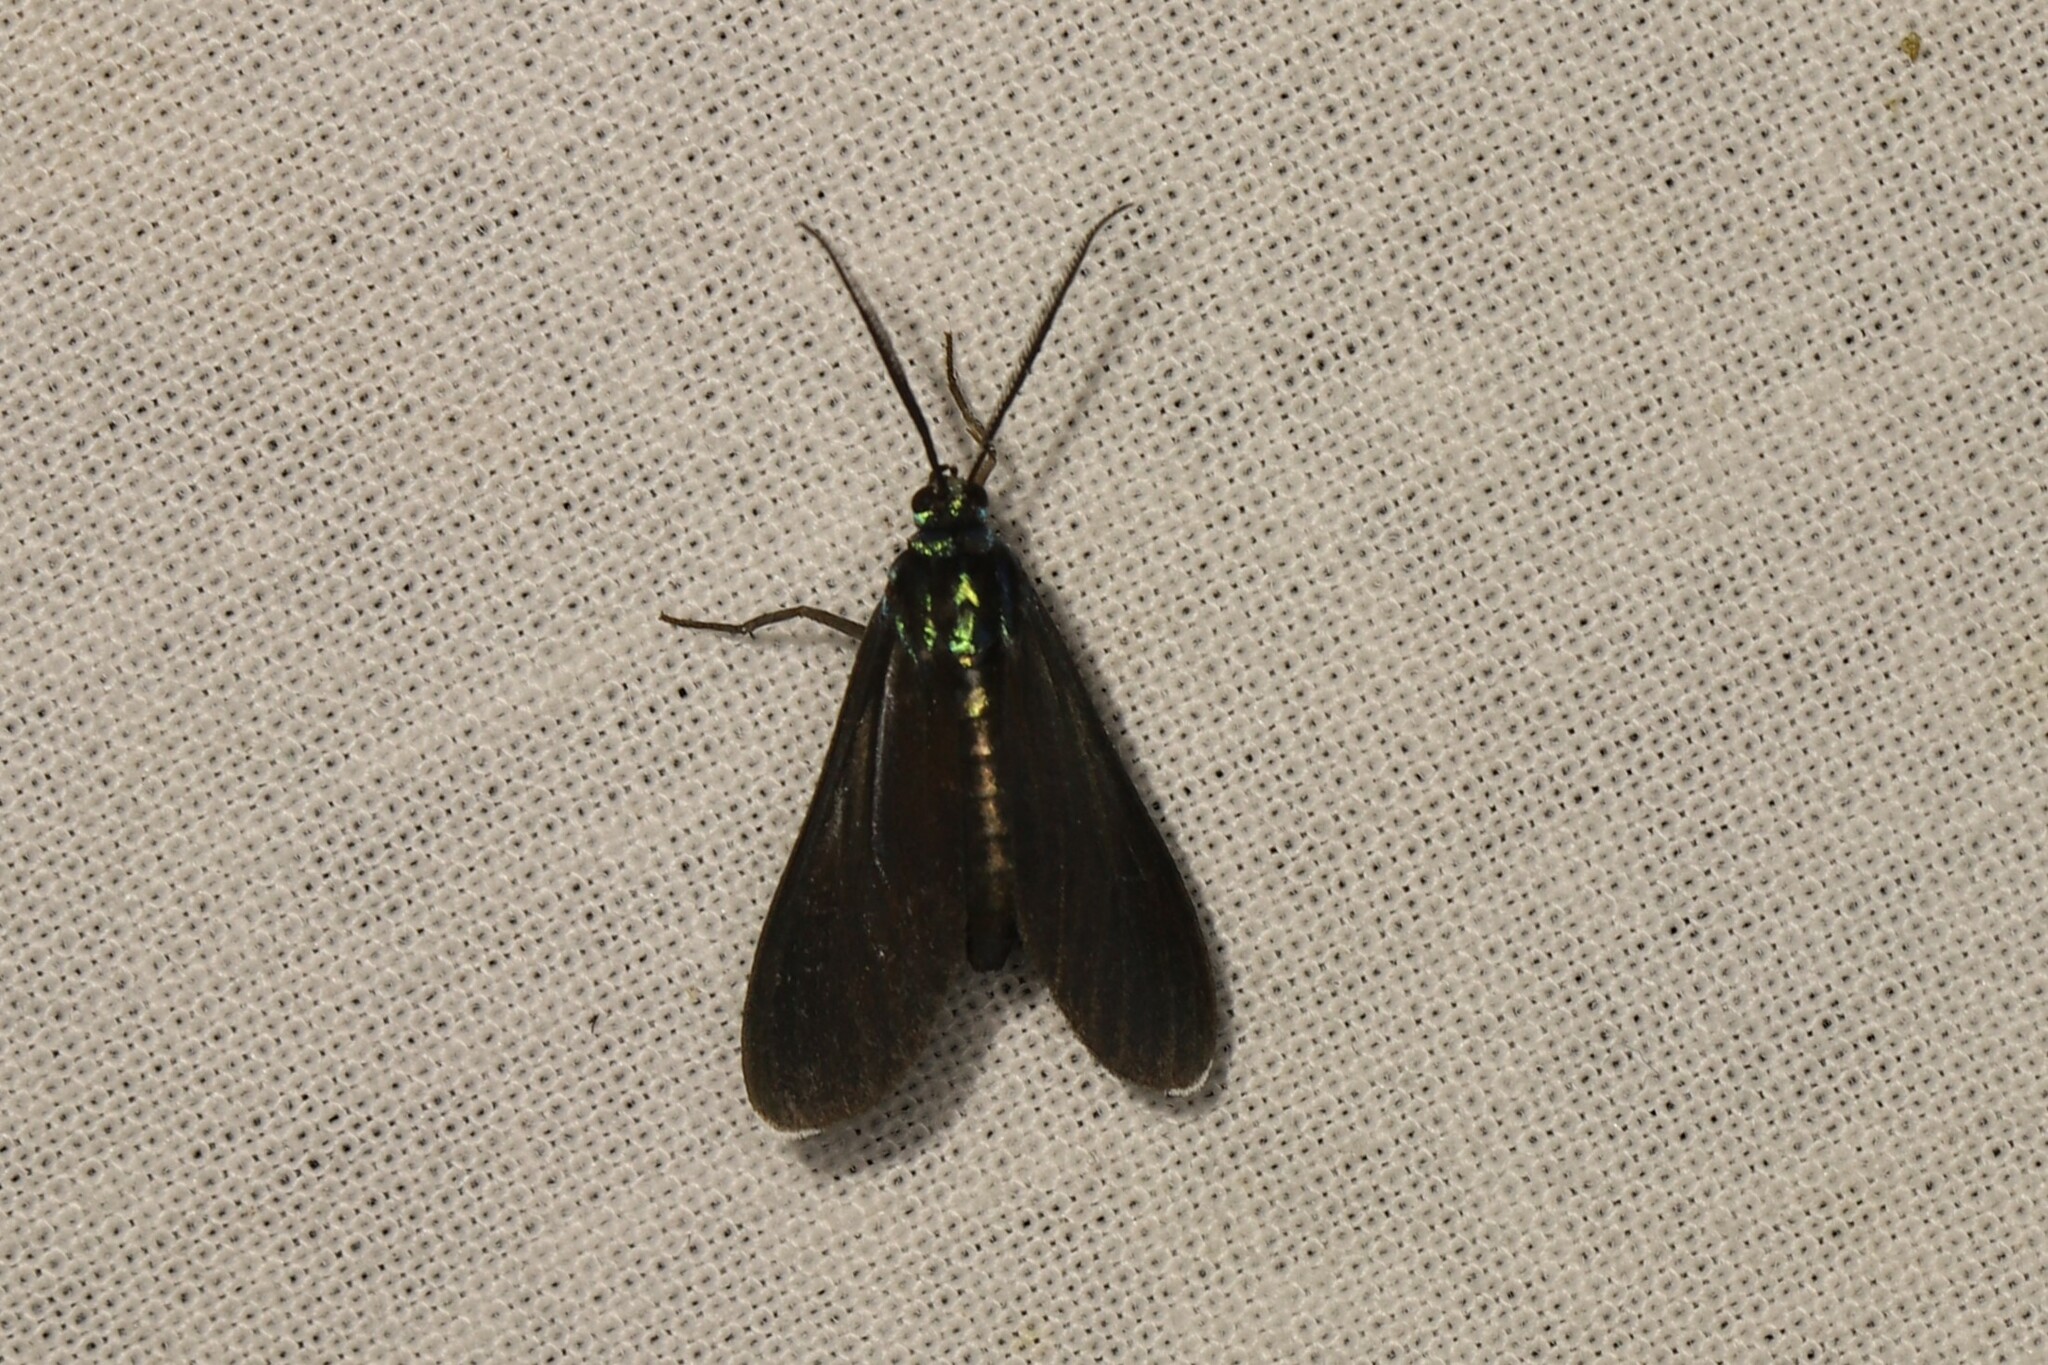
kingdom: Animalia
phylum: Arthropoda
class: Insecta
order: Lepidoptera
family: Erebidae
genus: Uranophora
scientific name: Uranophora leucotela
